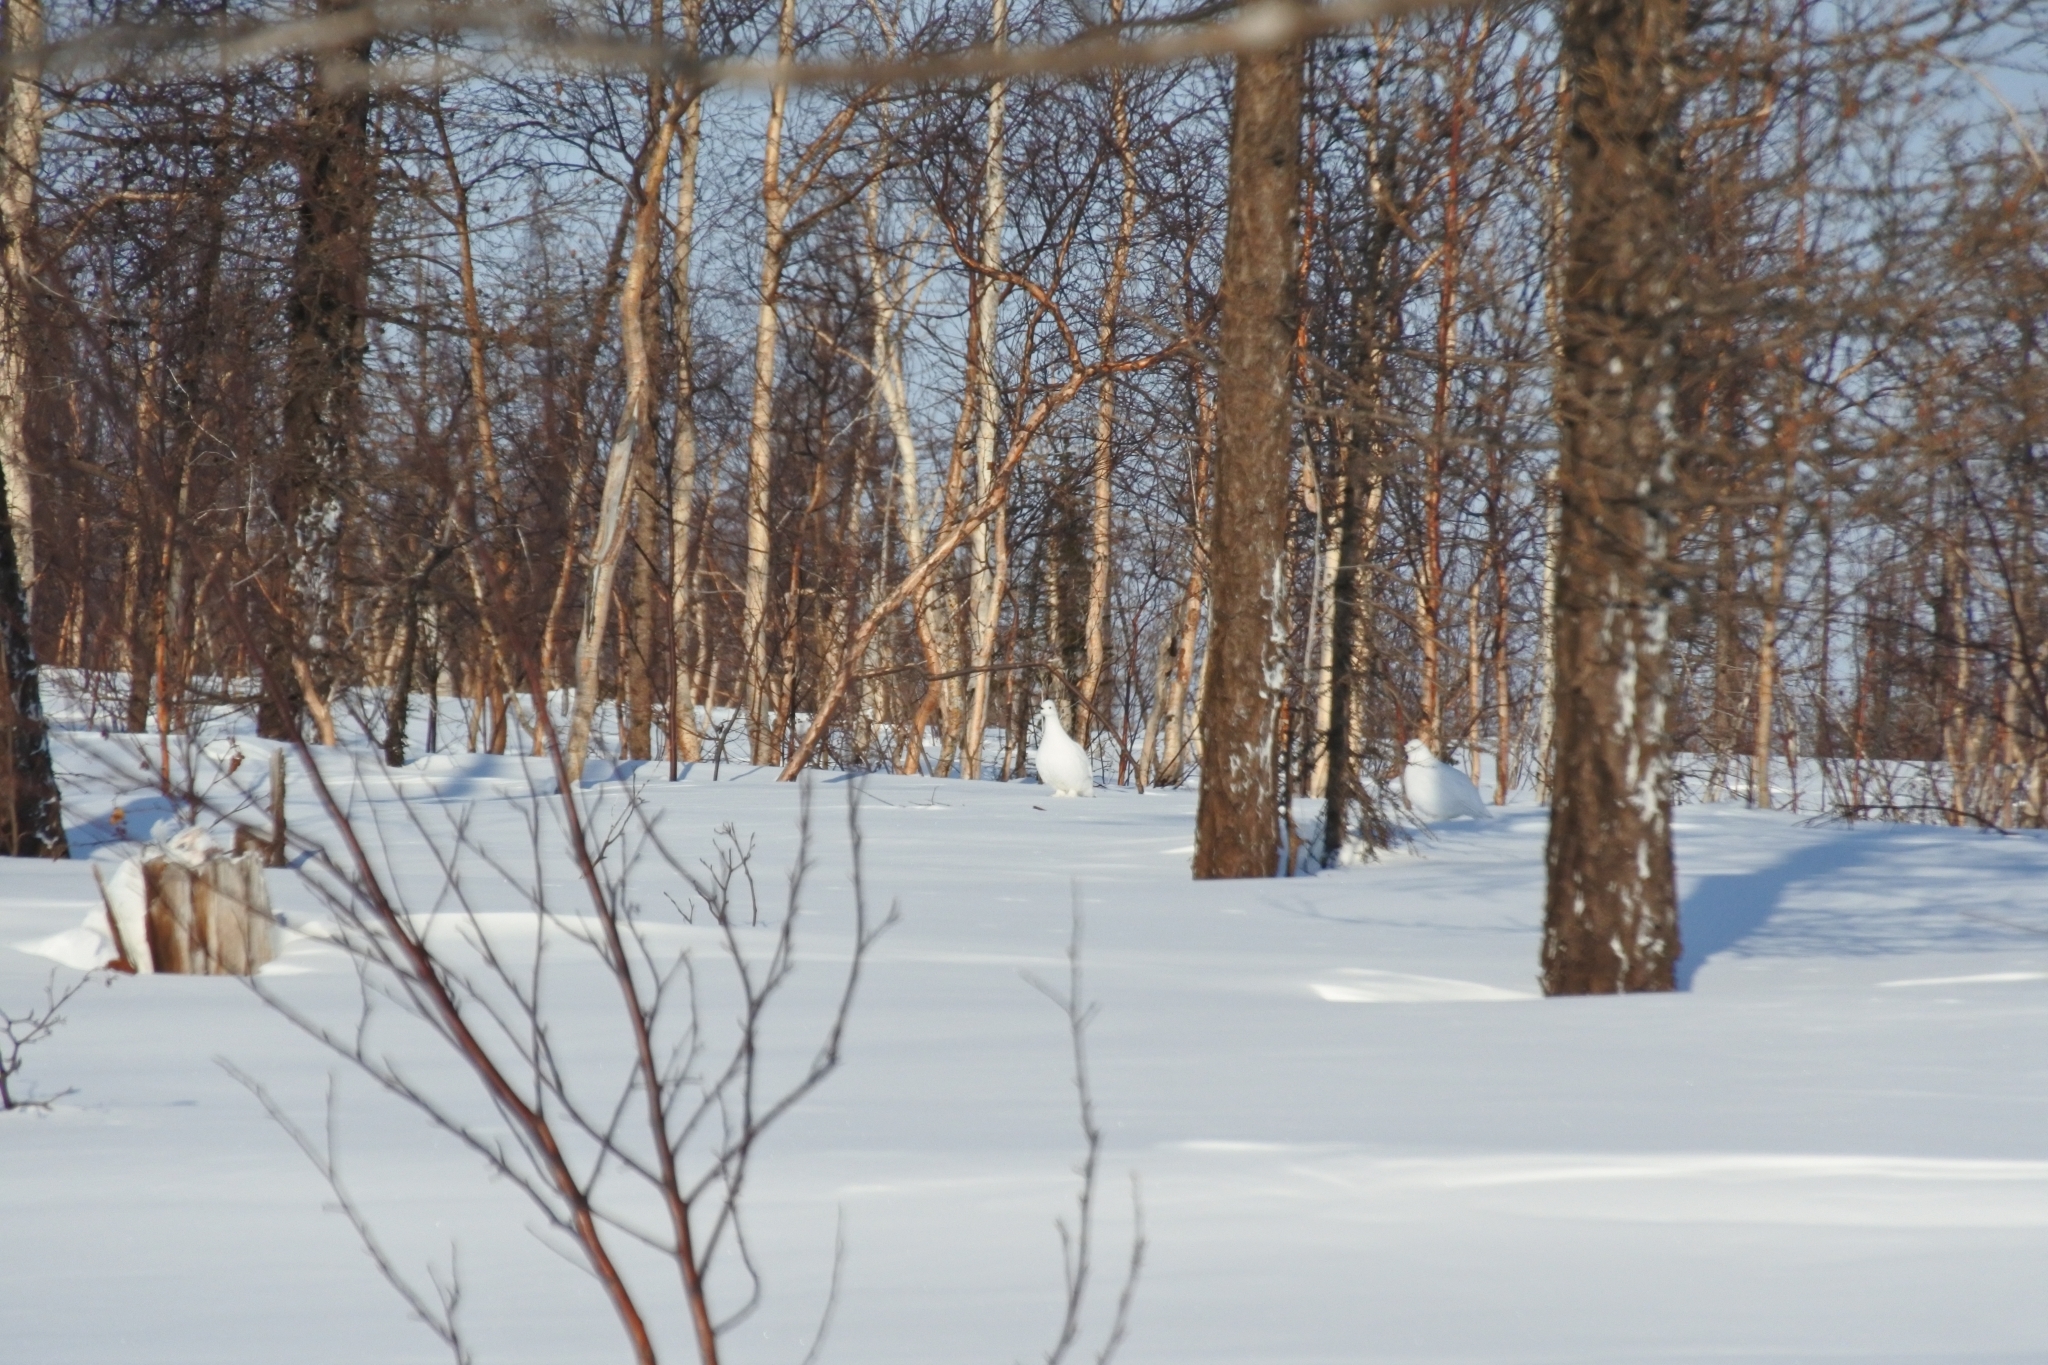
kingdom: Animalia
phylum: Chordata
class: Aves
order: Galliformes
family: Phasianidae
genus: Lagopus
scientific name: Lagopus lagopus
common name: Willow ptarmigan
